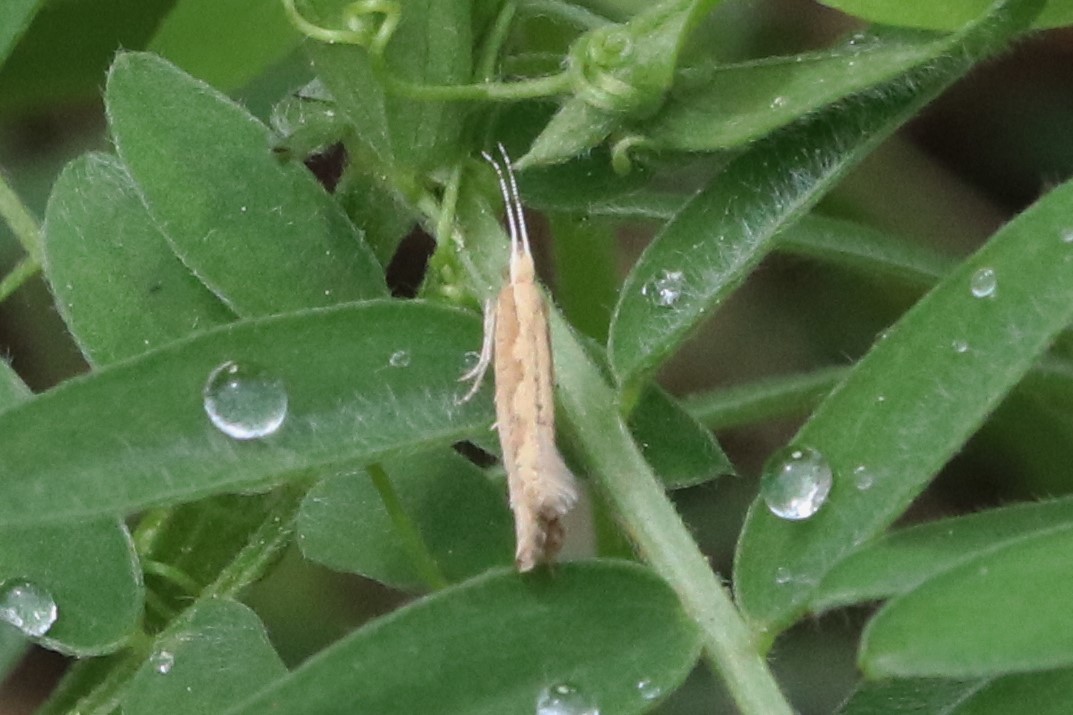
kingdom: Animalia
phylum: Arthropoda
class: Insecta
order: Lepidoptera
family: Plutellidae
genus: Plutella
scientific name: Plutella xylostella
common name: Diamond-back moth
